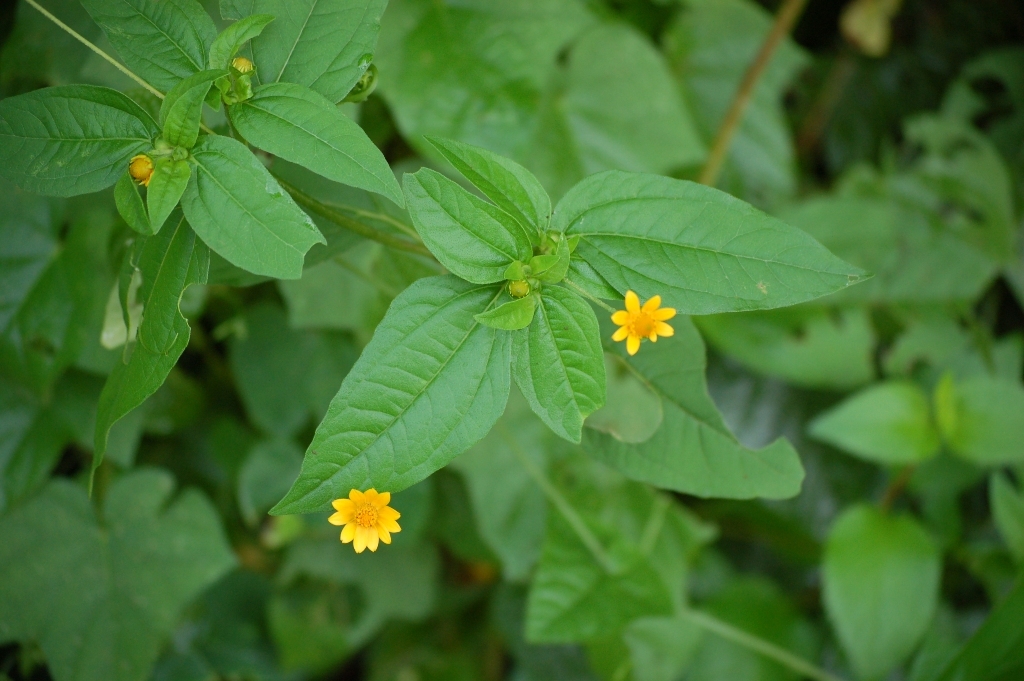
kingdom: Plantae
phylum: Tracheophyta
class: Magnoliopsida
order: Asterales
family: Asteraceae
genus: Melampodium
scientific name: Melampodium divaricatum
